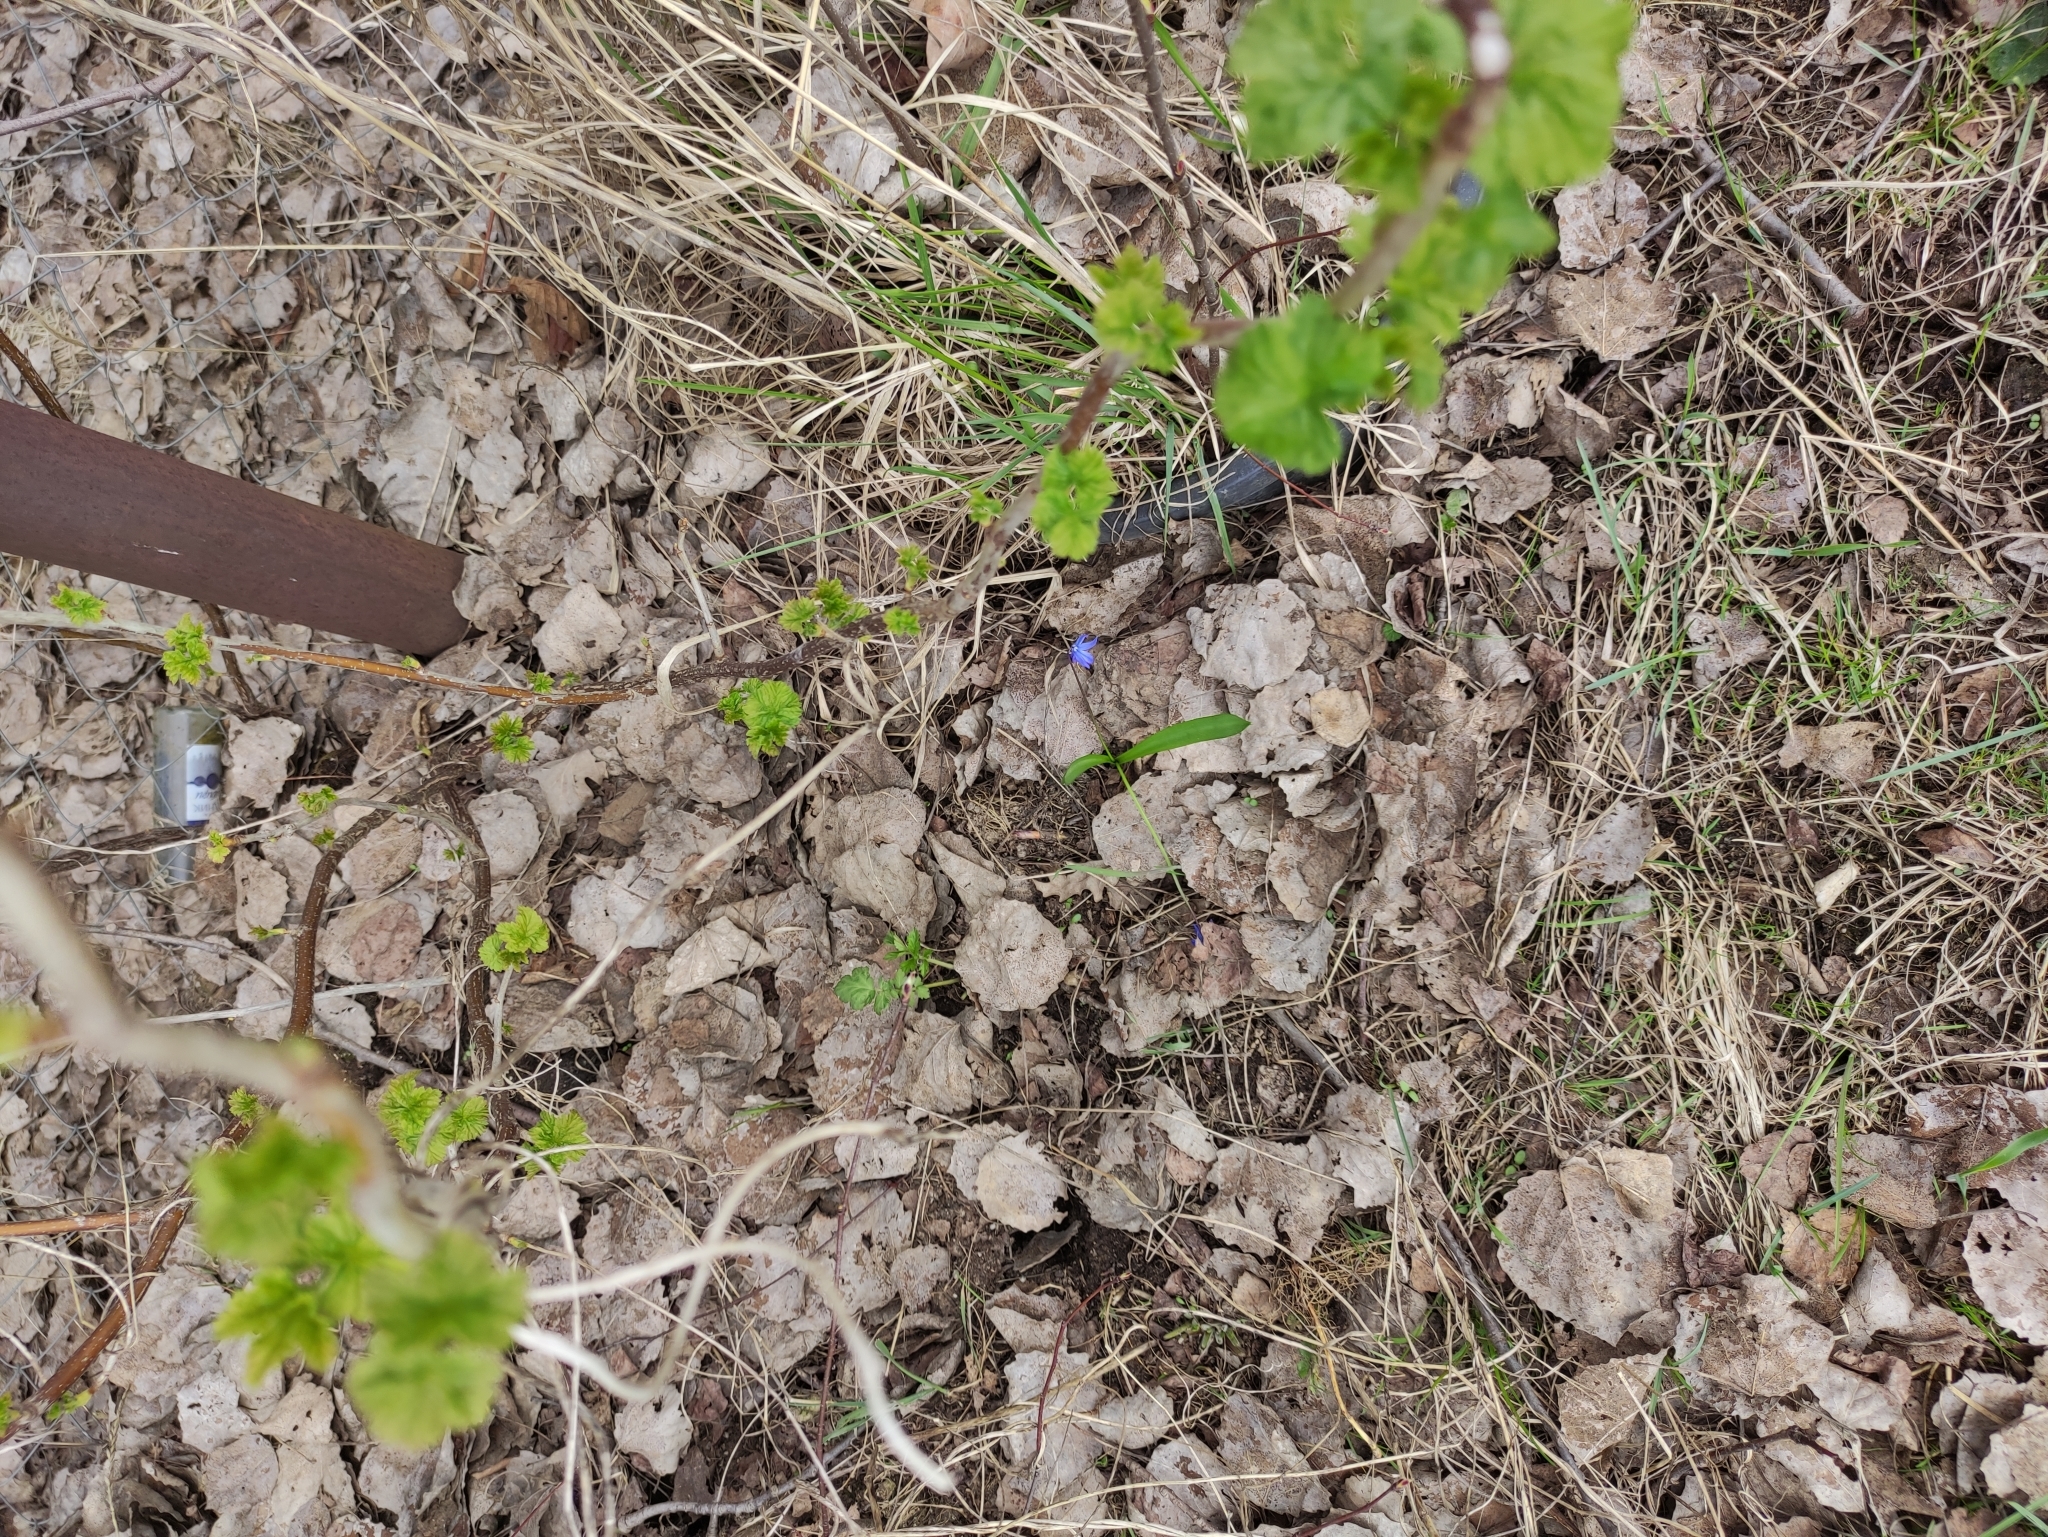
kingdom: Plantae
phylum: Tracheophyta
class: Liliopsida
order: Asparagales
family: Asparagaceae
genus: Scilla
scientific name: Scilla siberica
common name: Siberian squill
